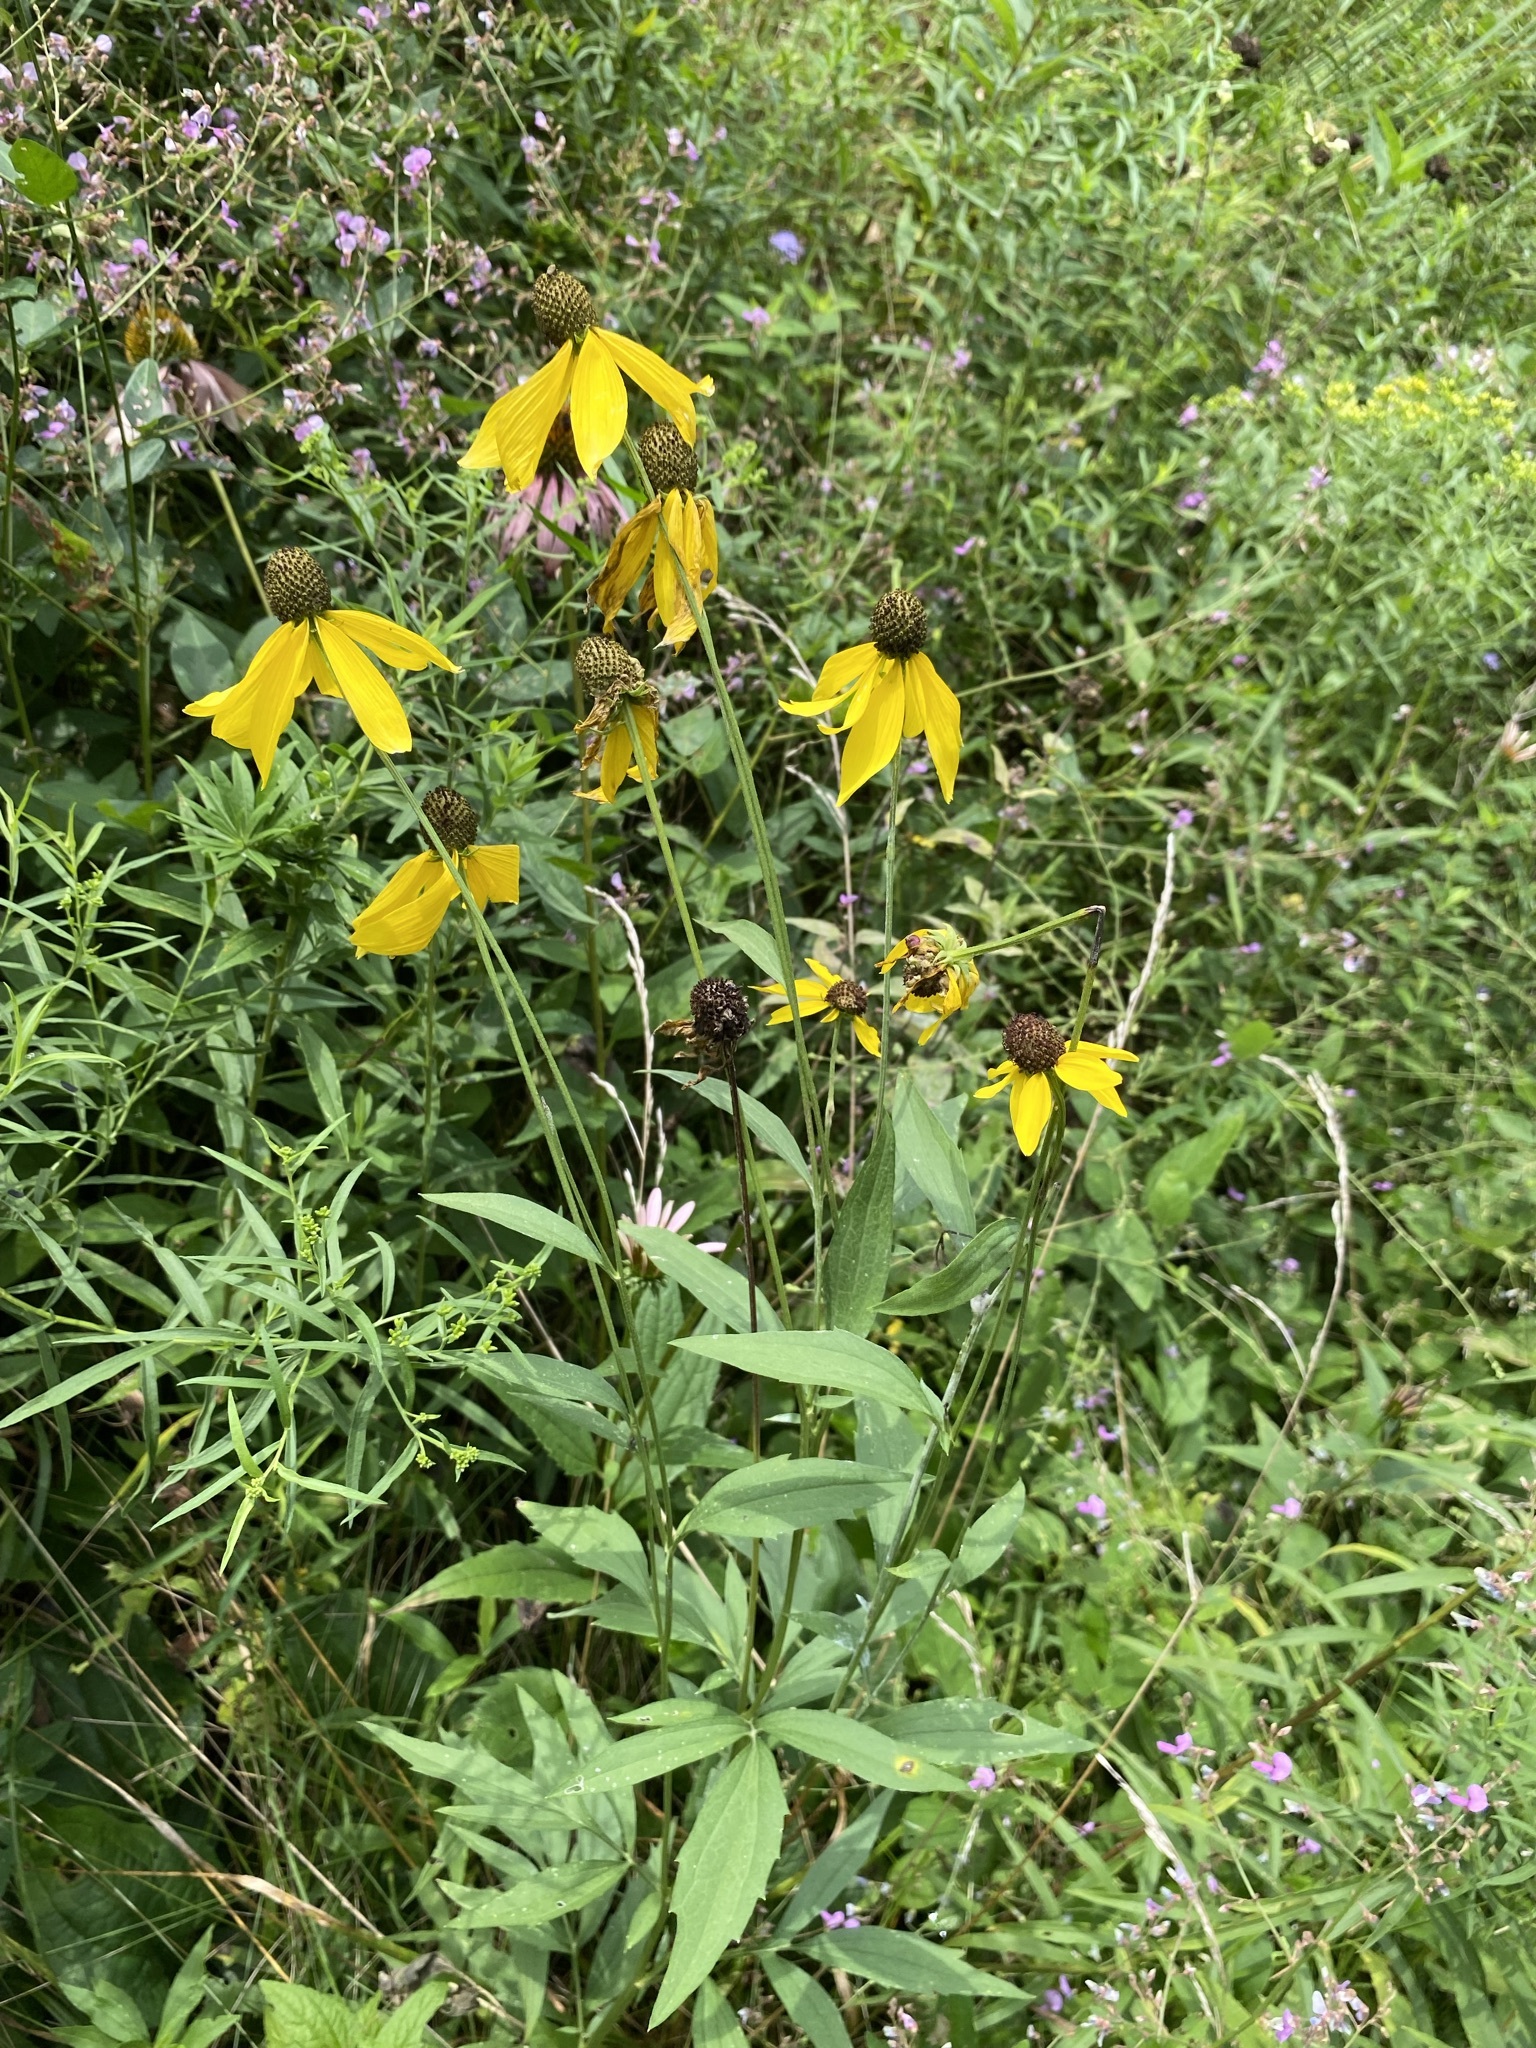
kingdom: Plantae
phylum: Tracheophyta
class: Magnoliopsida
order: Asterales
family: Asteraceae
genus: Ratibida
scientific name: Ratibida pinnata
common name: Drooping prairie-coneflower
